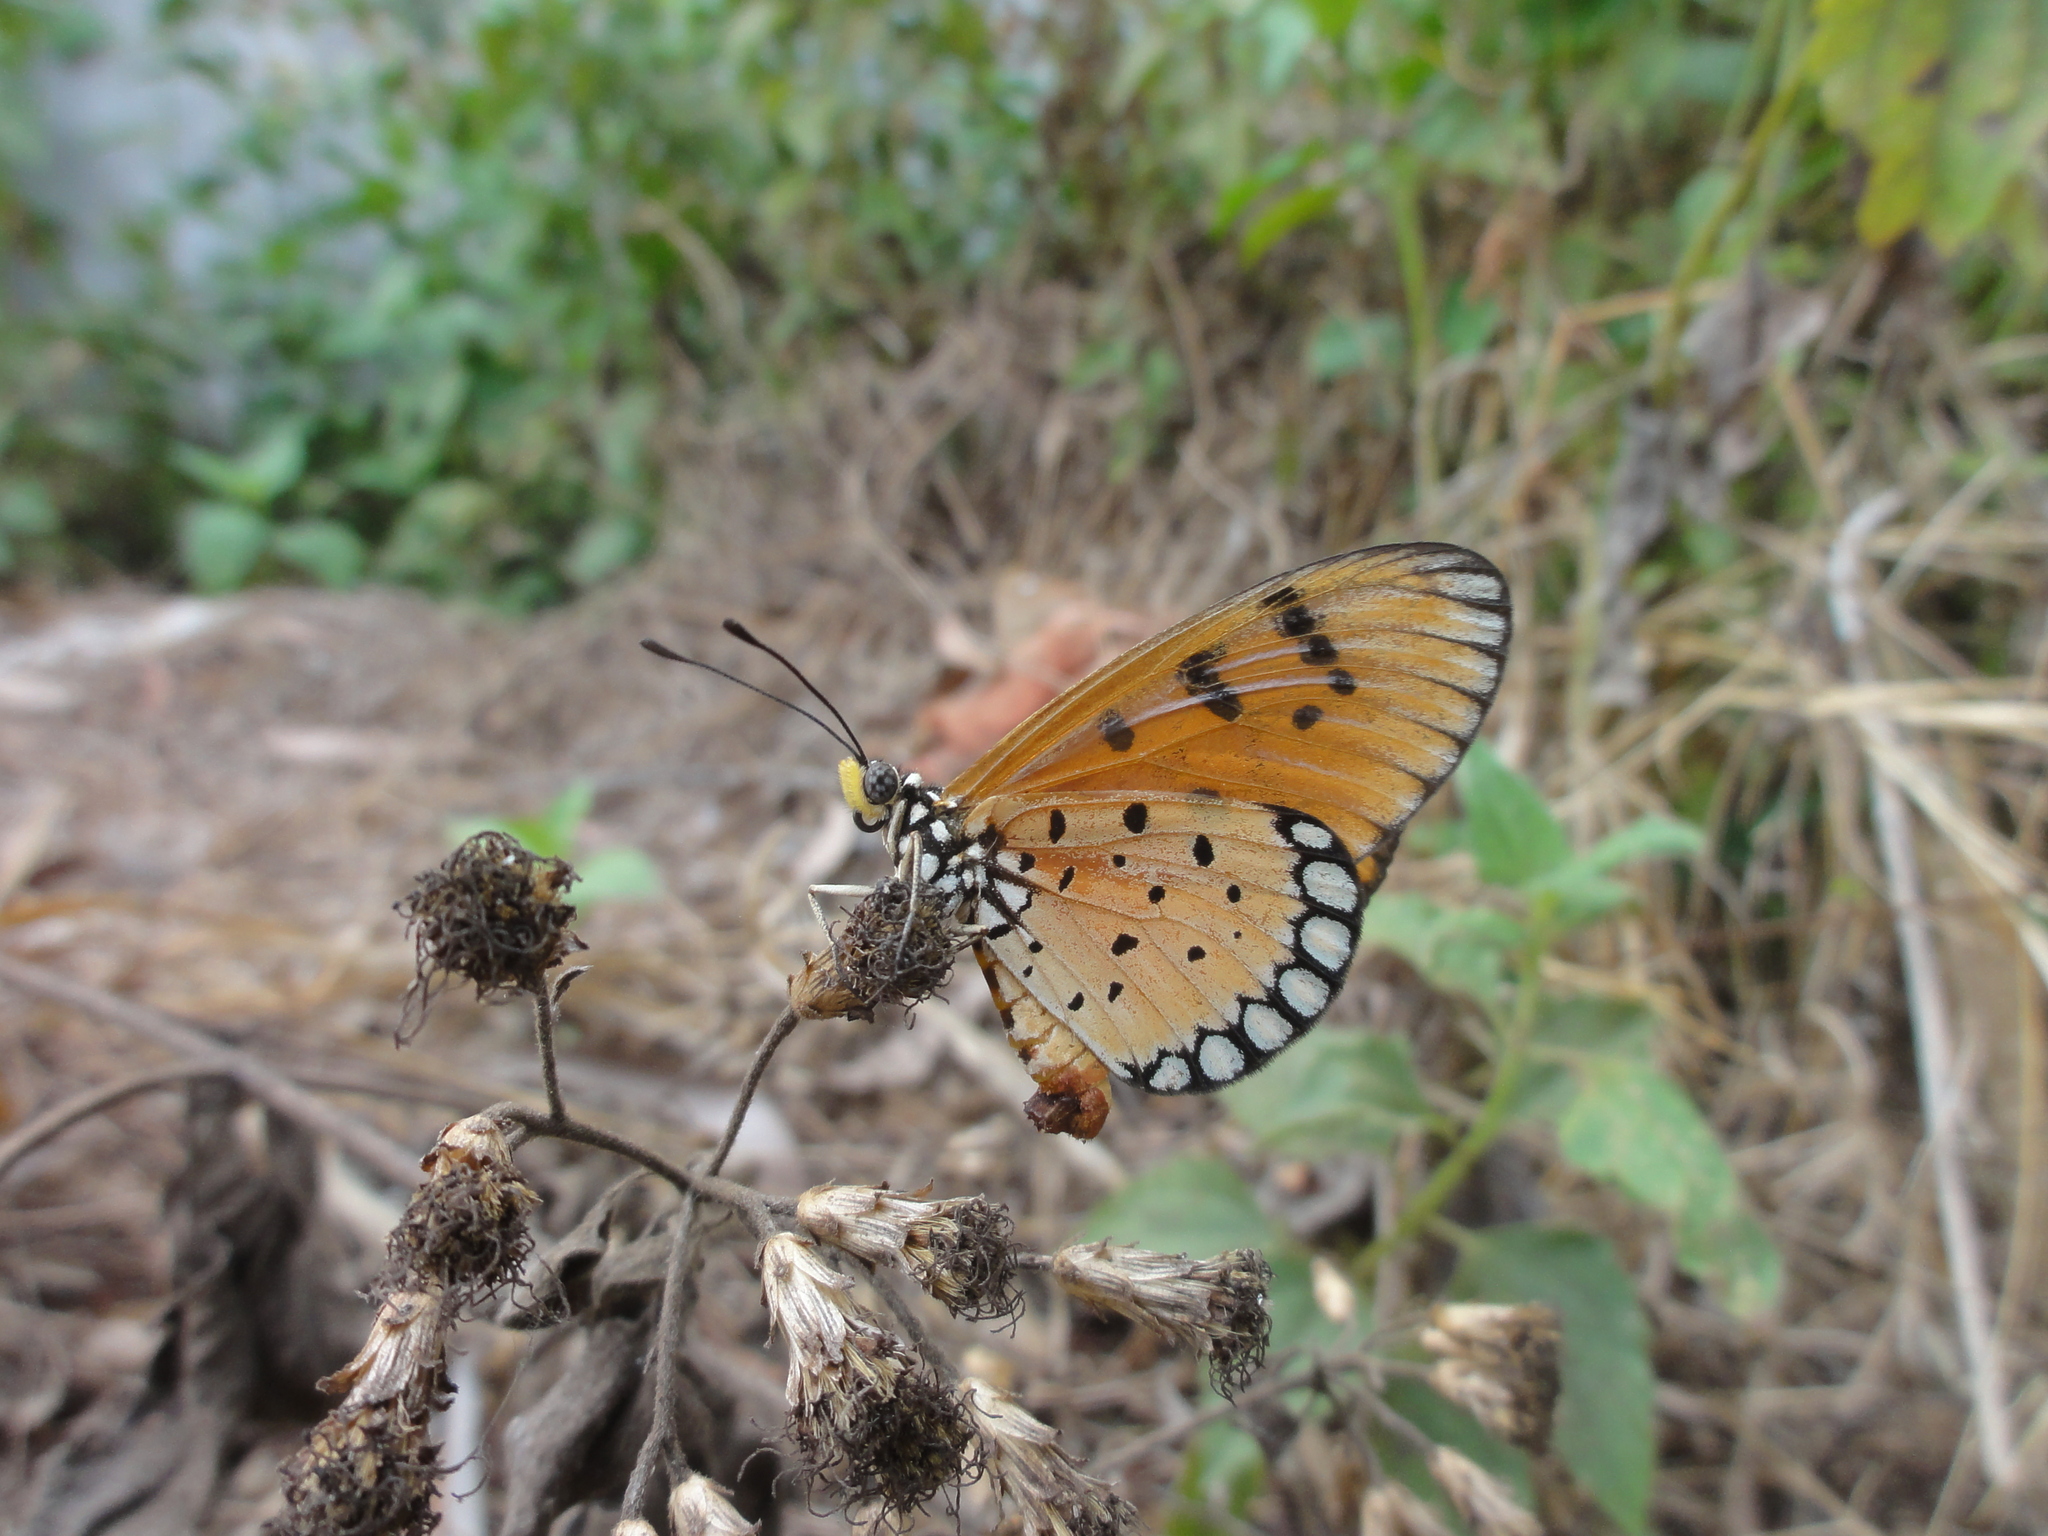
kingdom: Animalia
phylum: Arthropoda
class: Insecta
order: Lepidoptera
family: Nymphalidae
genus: Acraea
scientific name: Acraea terpsicore
